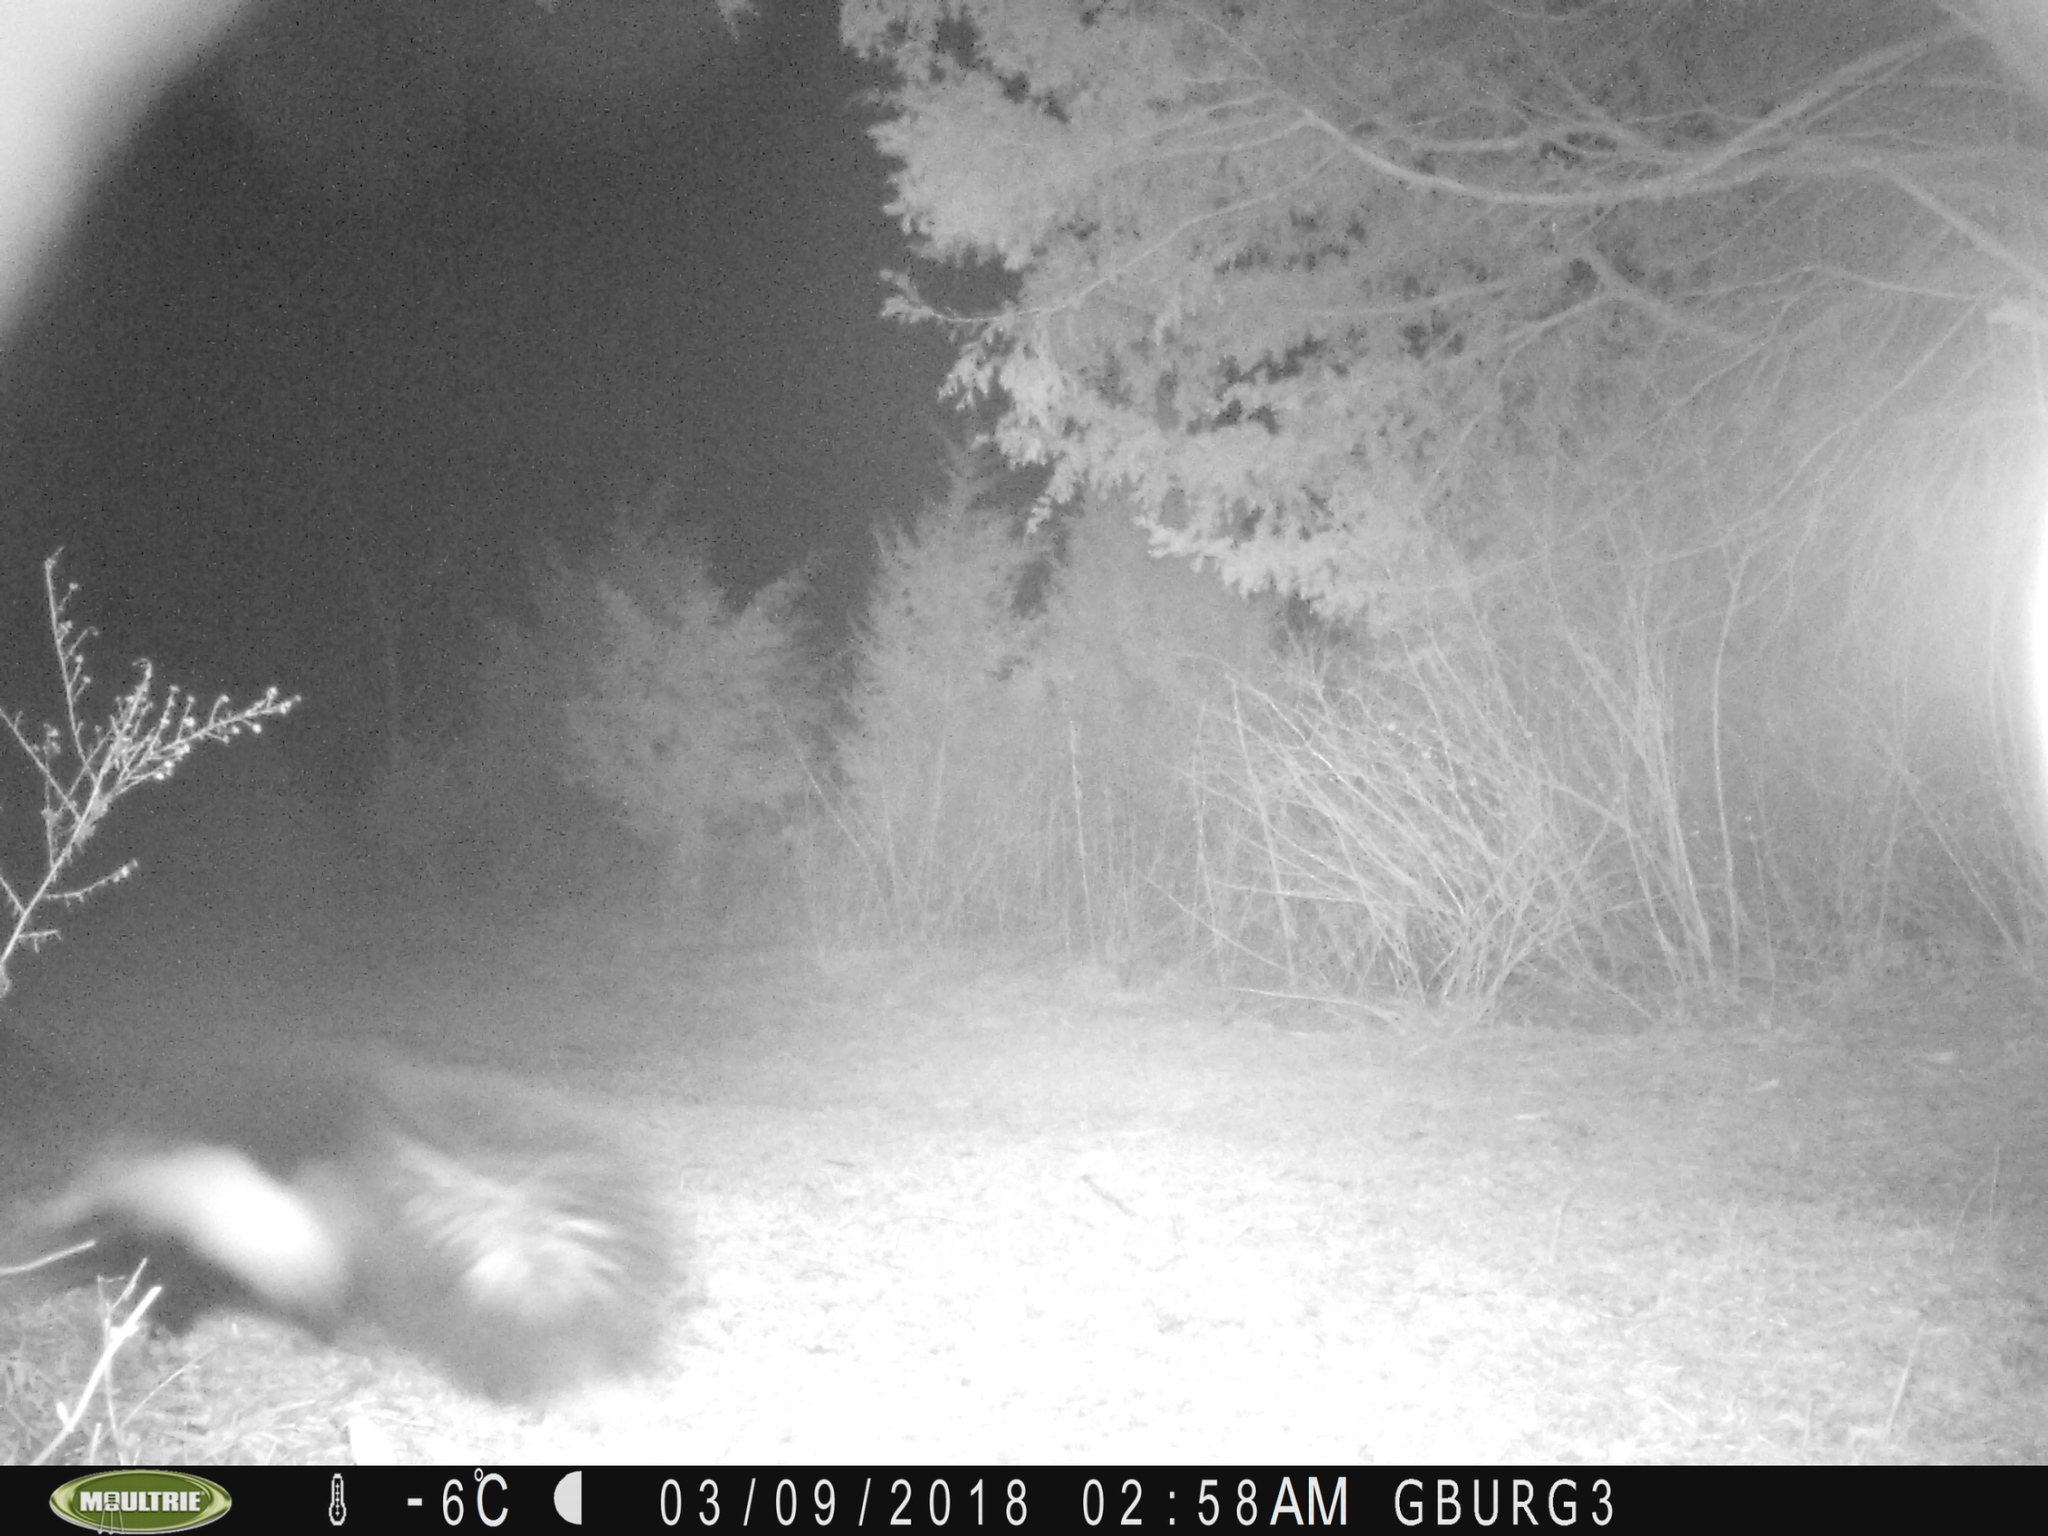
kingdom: Animalia
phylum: Chordata
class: Mammalia
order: Carnivora
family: Mephitidae
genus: Mephitis
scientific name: Mephitis mephitis
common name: Striped skunk
